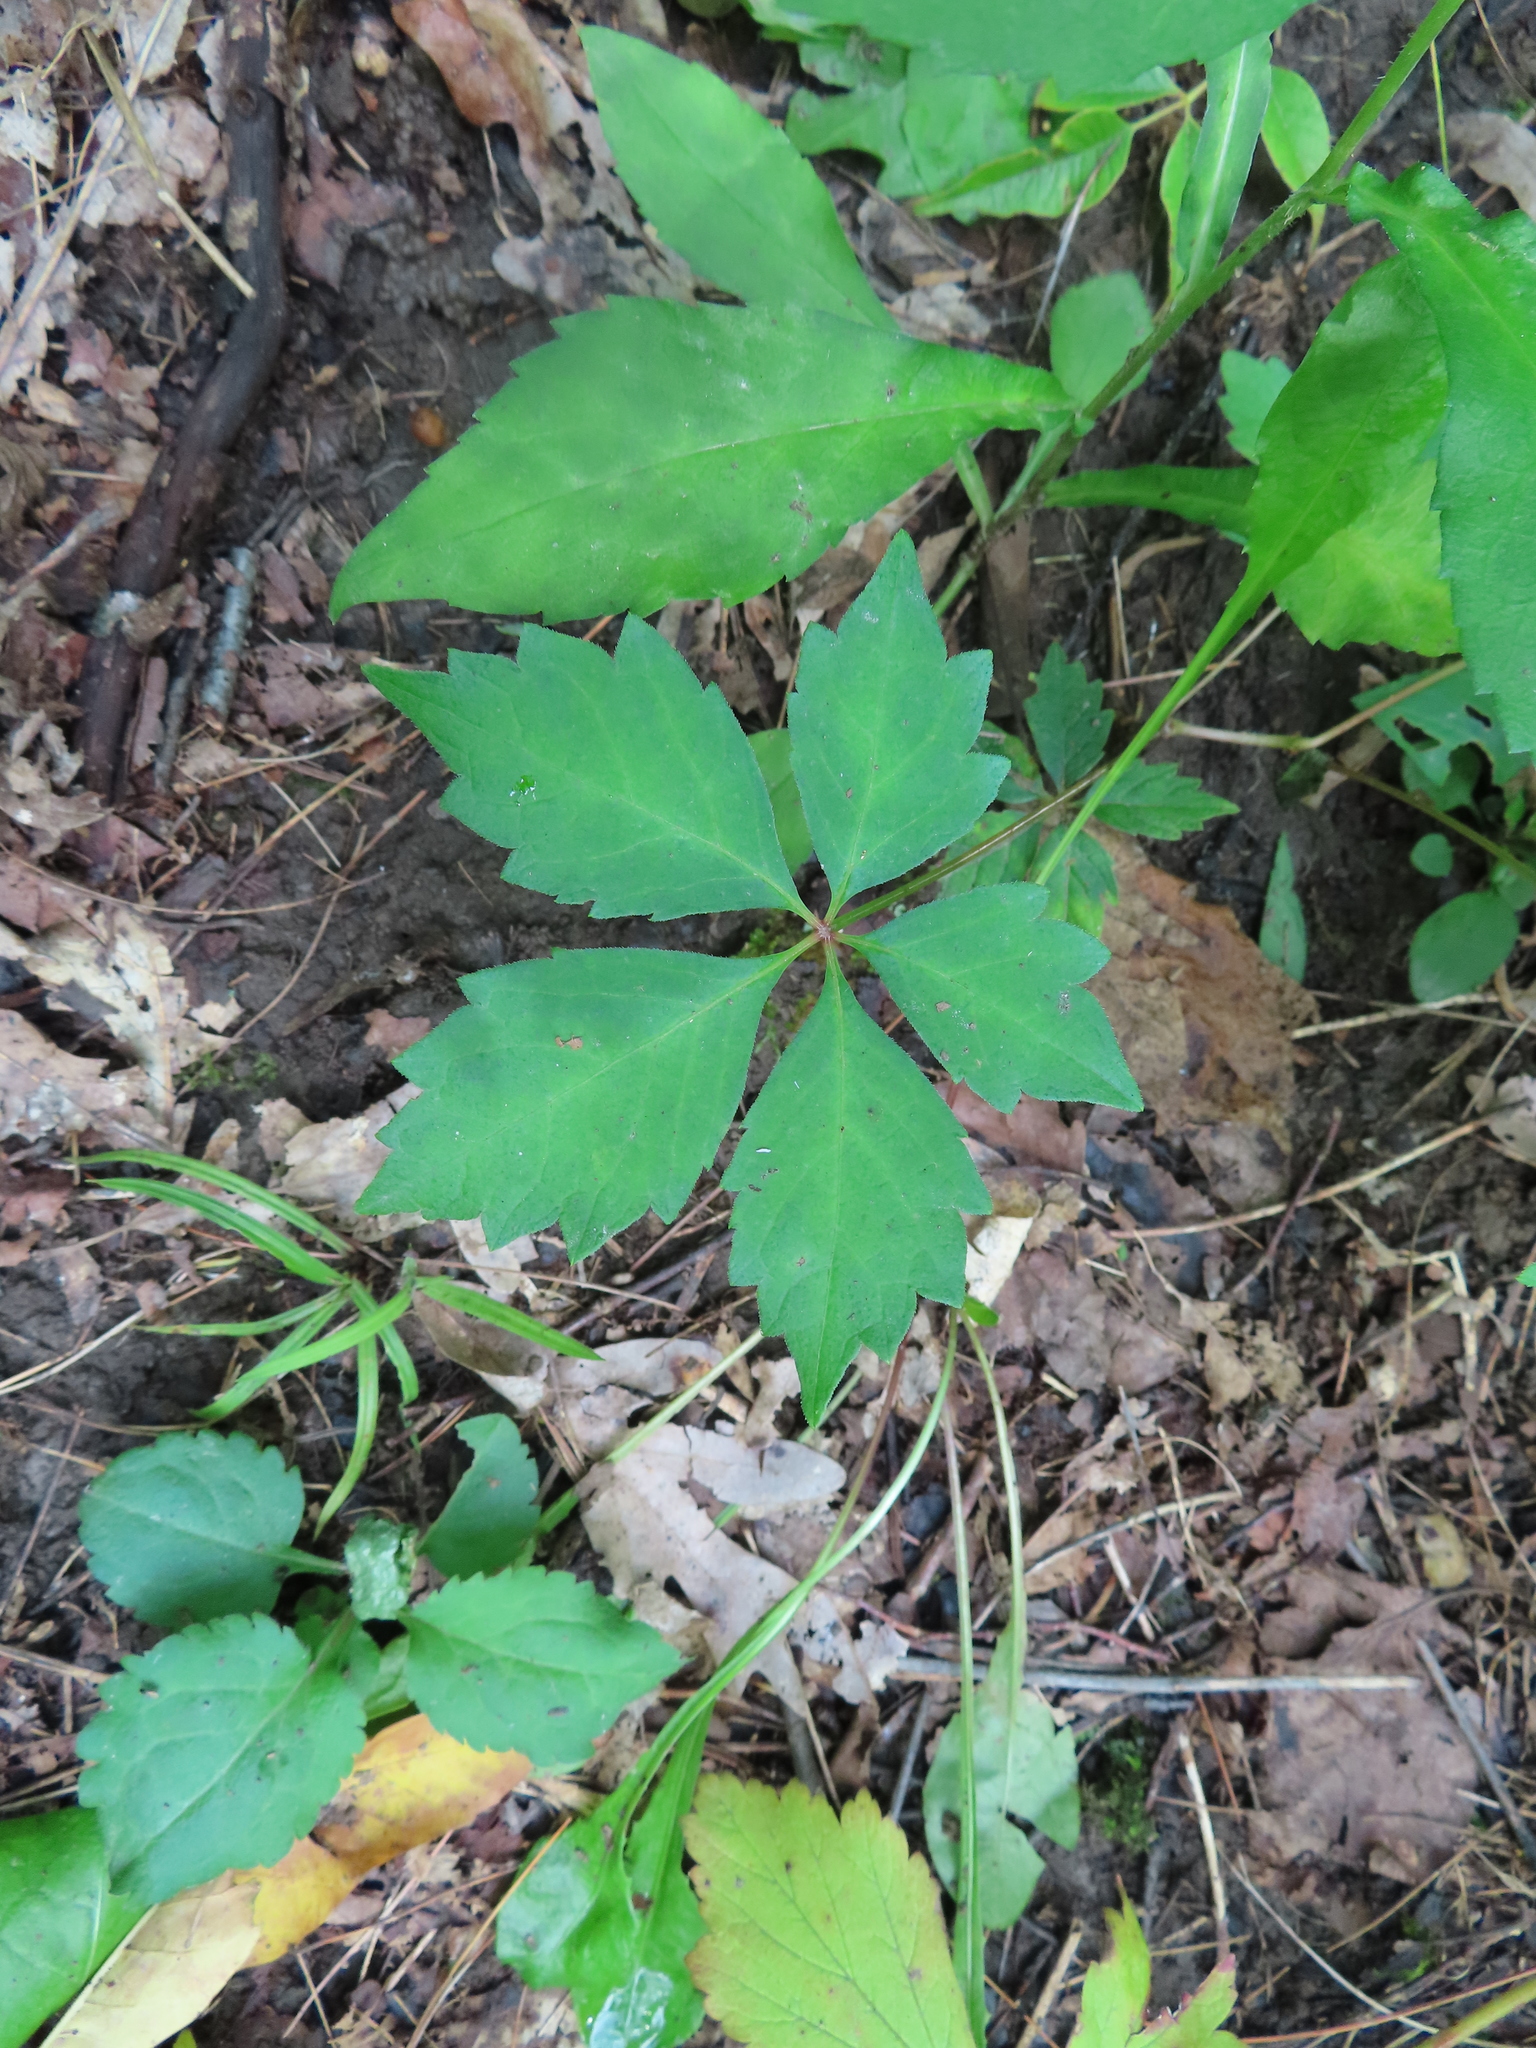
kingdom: Plantae
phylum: Tracheophyta
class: Magnoliopsida
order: Vitales
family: Vitaceae
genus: Parthenocissus
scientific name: Parthenocissus quinquefolia
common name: Virginia-creeper
